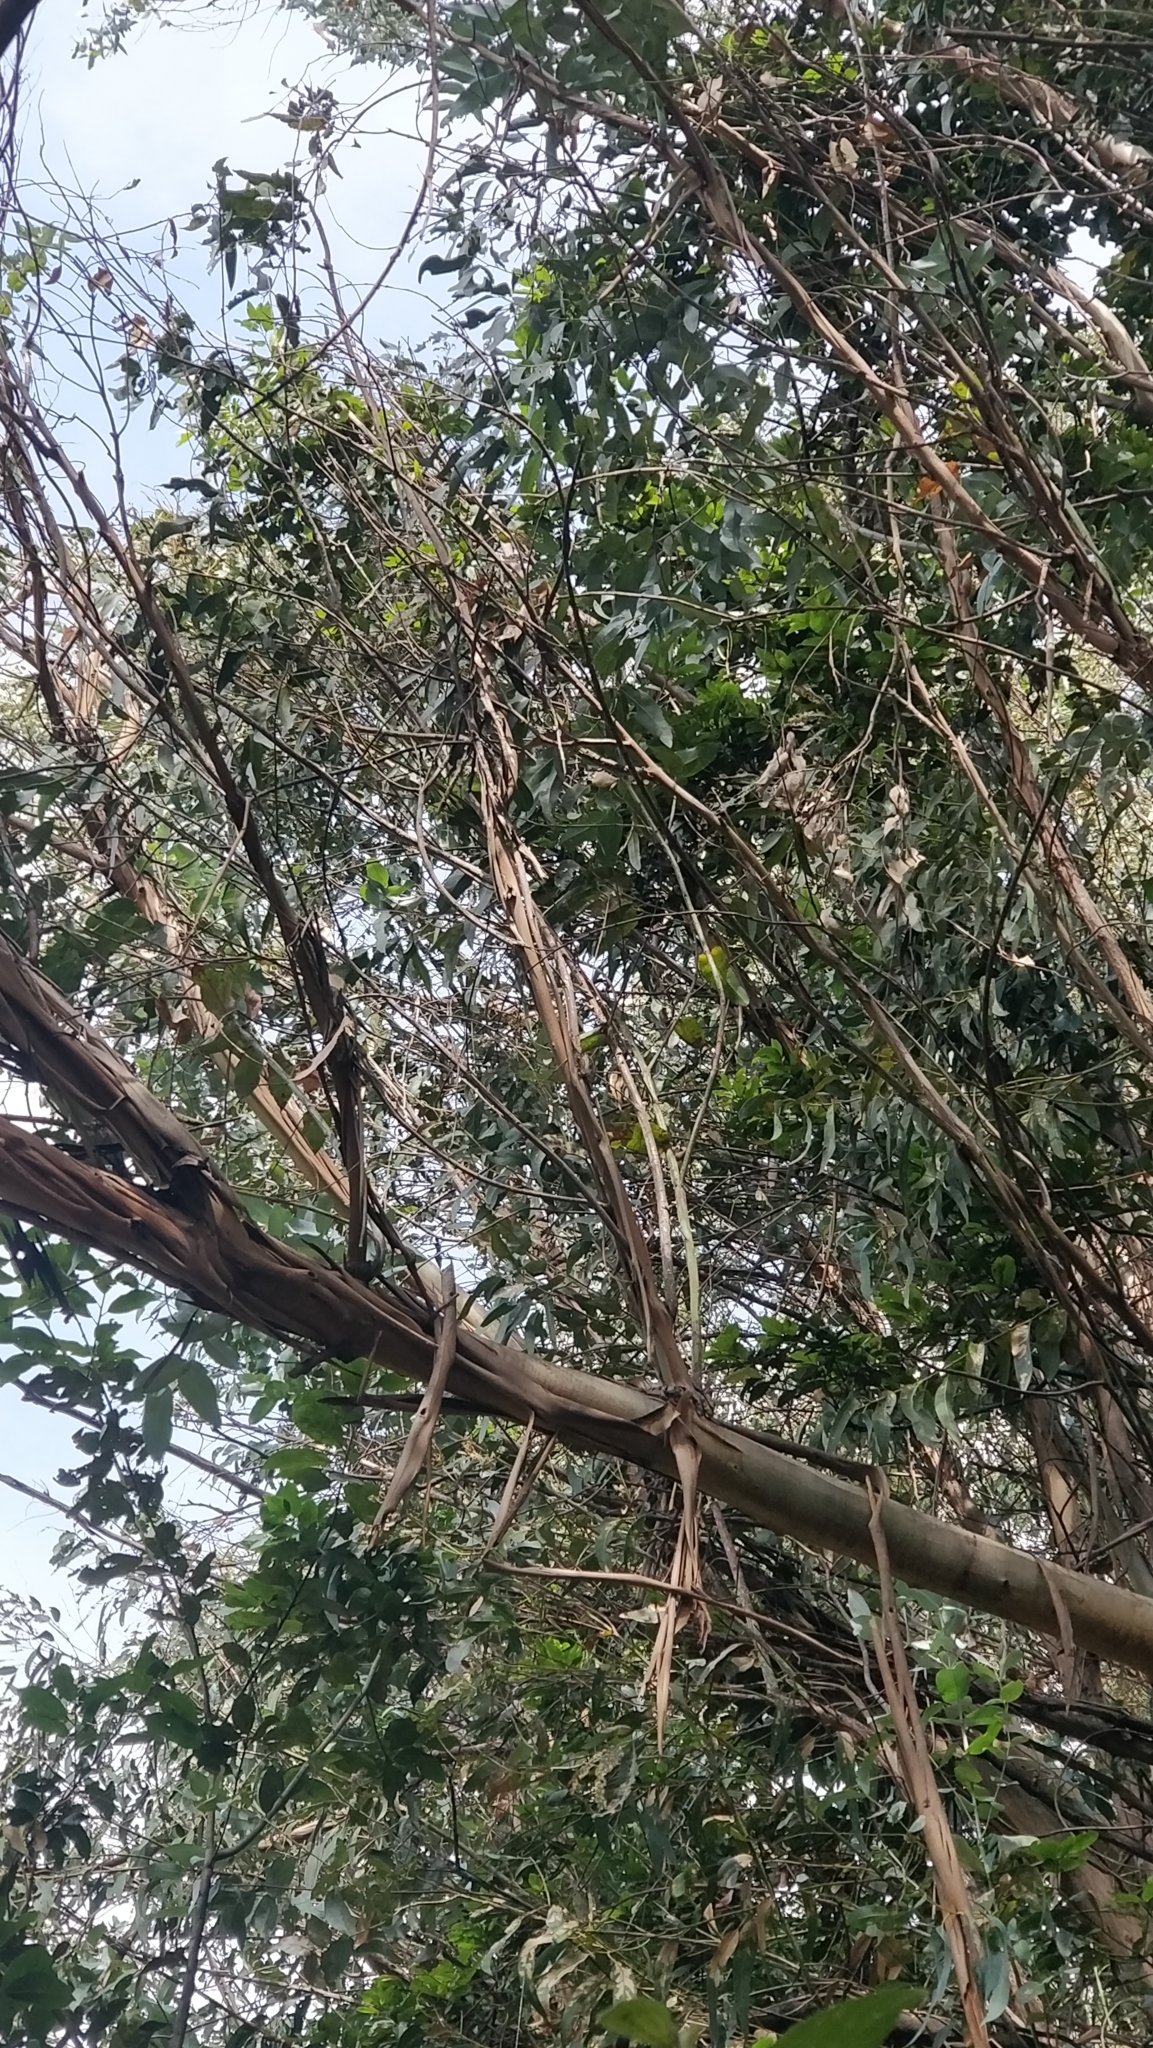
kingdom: Plantae
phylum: Tracheophyta
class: Magnoliopsida
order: Myrtales
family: Myrtaceae
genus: Eucalyptus
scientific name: Eucalyptus globulus
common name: Southern blue-gum
